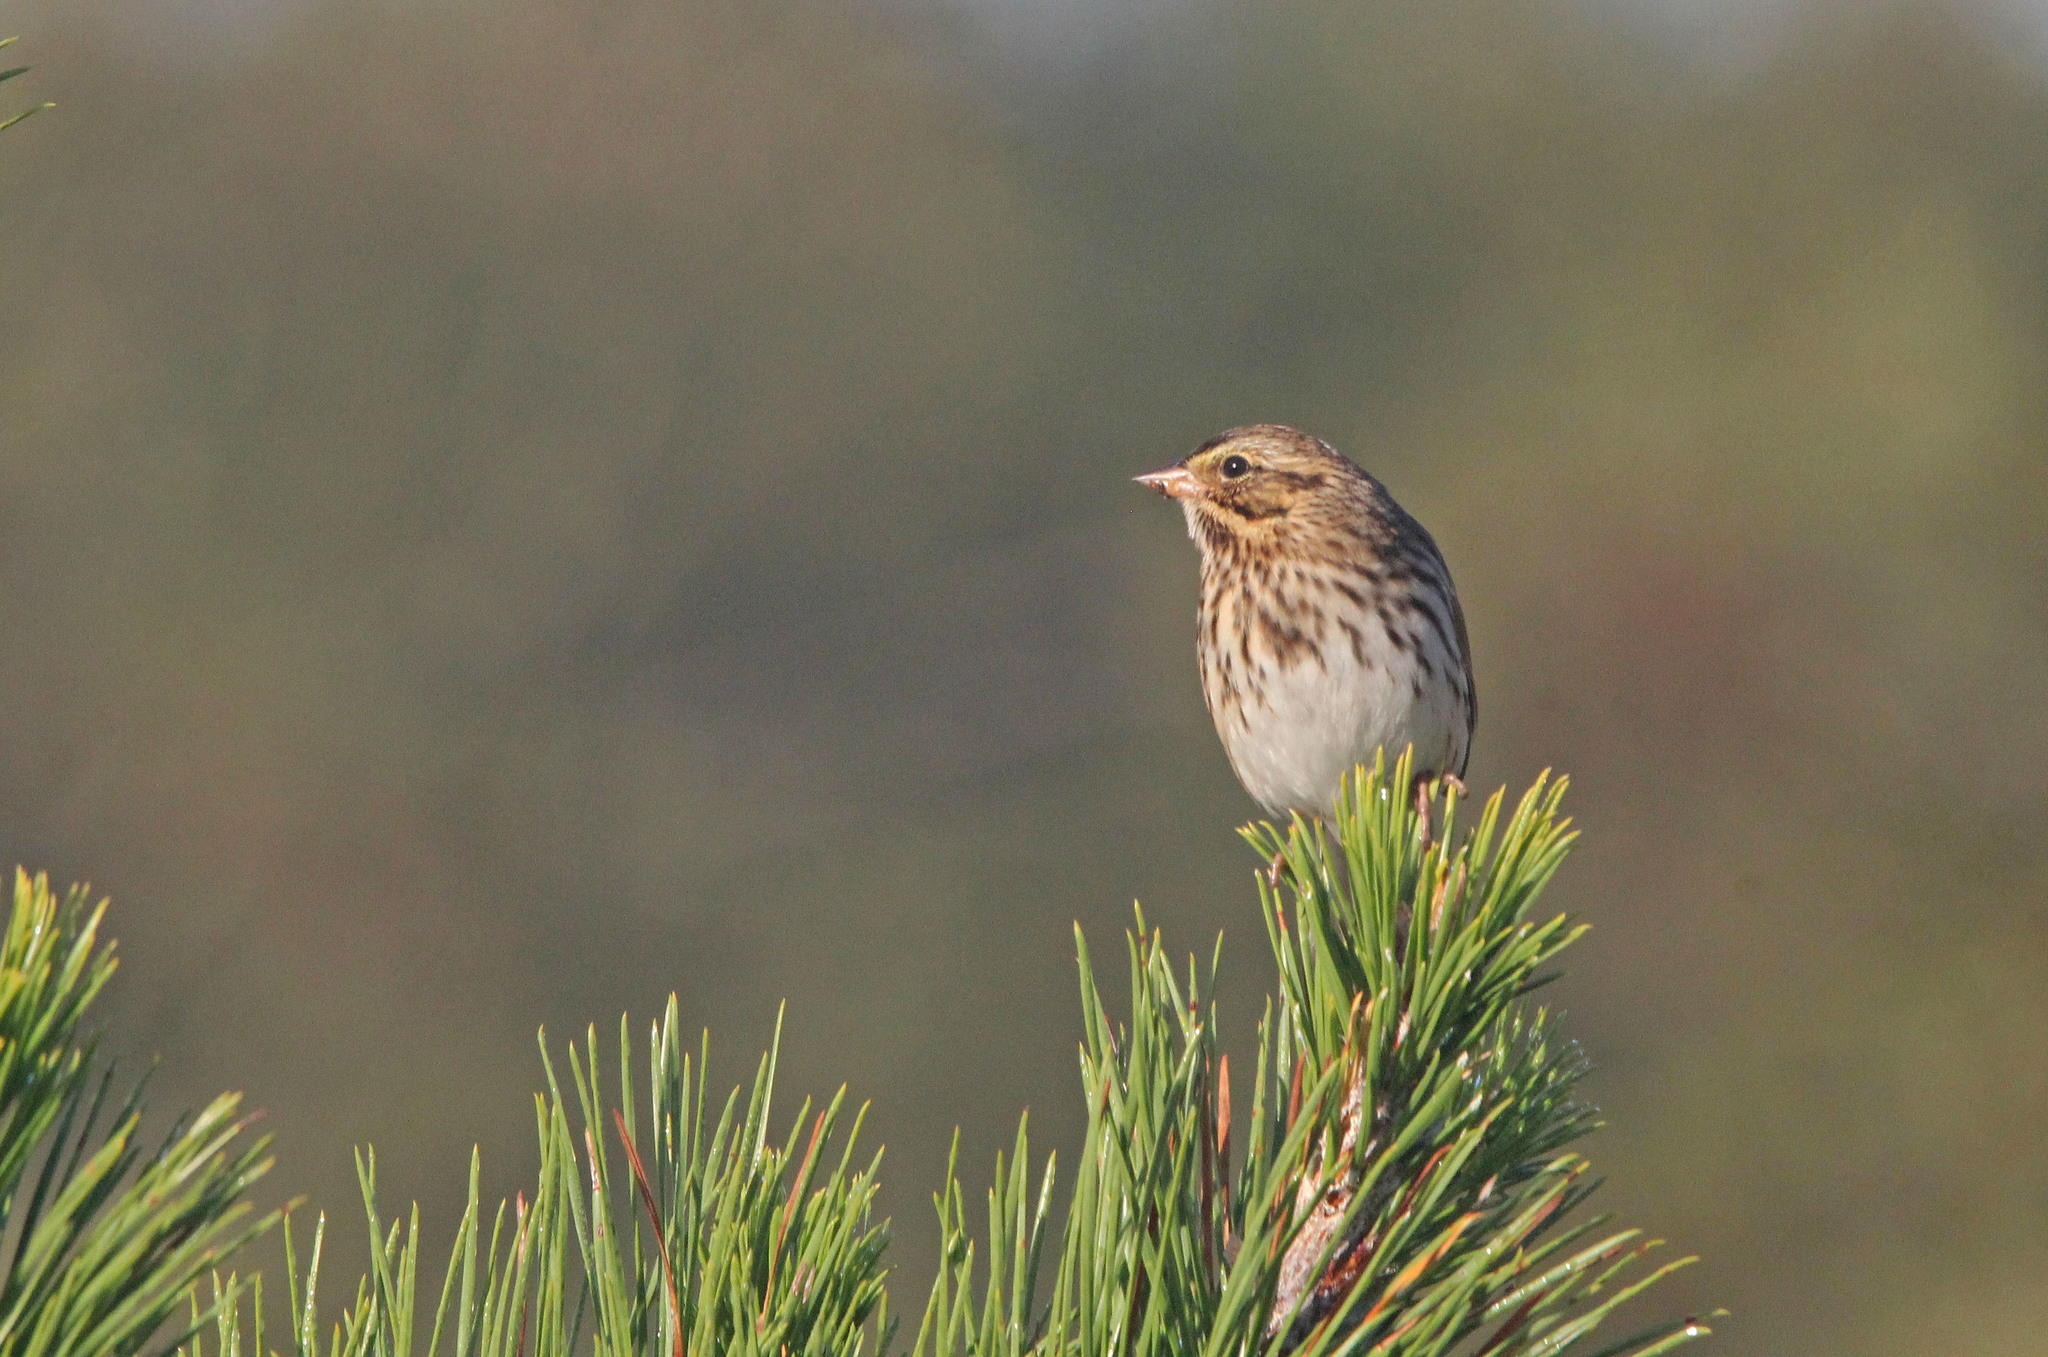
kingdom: Animalia
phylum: Chordata
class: Aves
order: Passeriformes
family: Passerellidae
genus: Passerculus
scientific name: Passerculus sandwichensis
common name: Savannah sparrow
